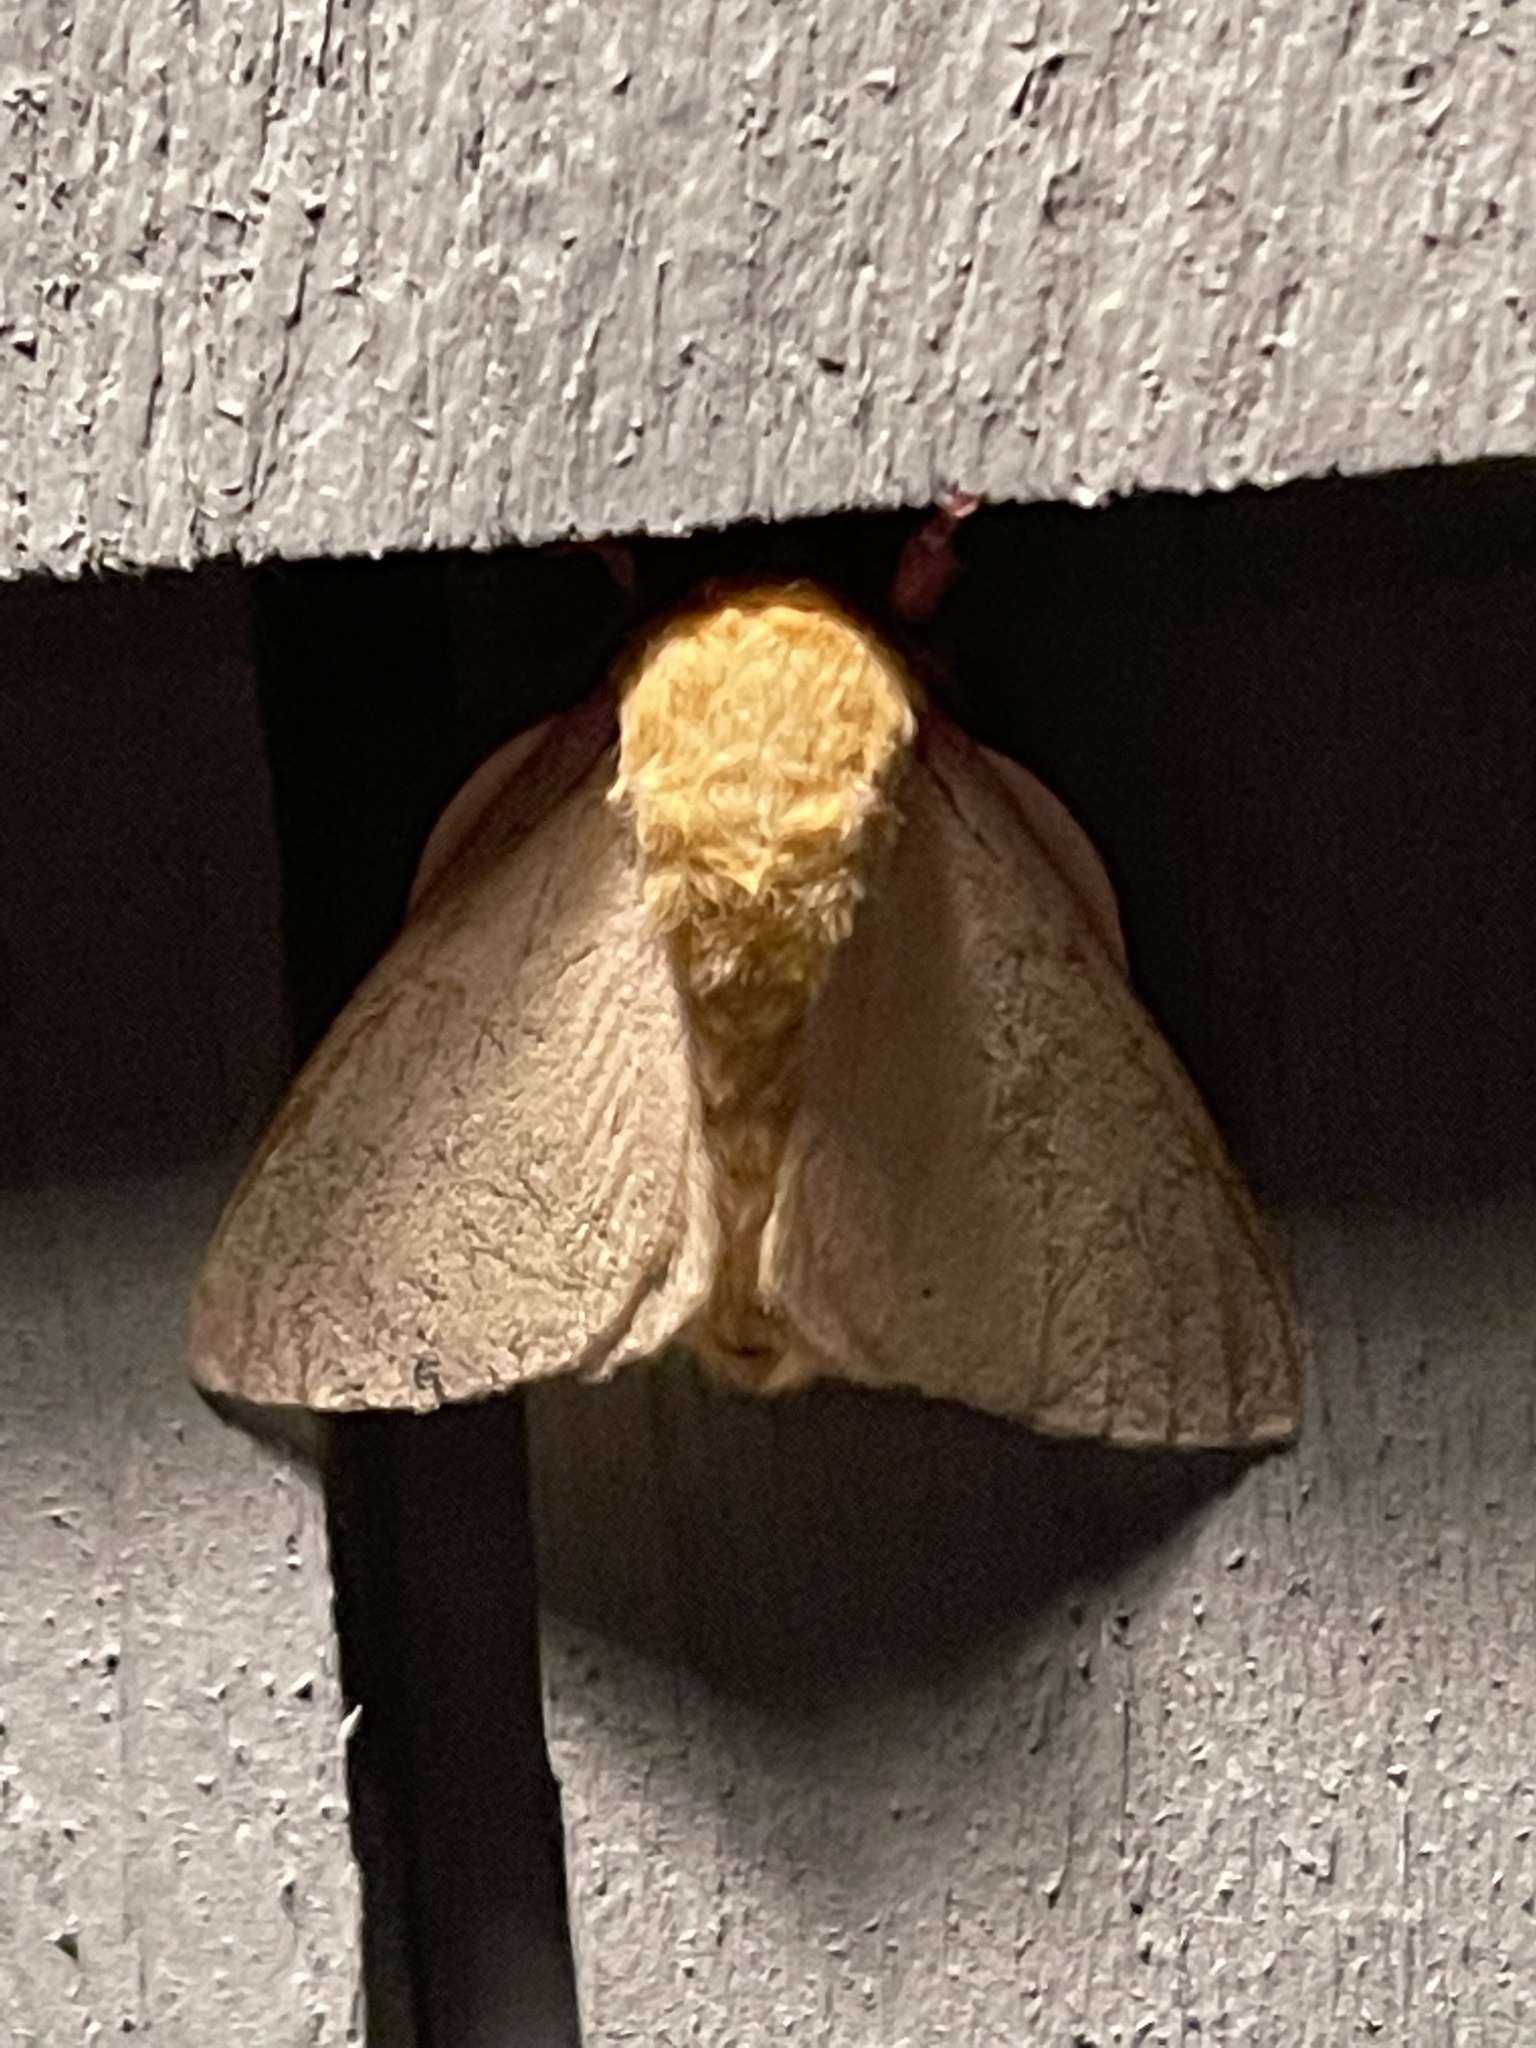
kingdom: Animalia
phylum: Arthropoda
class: Insecta
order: Lepidoptera
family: Saturniidae
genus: Dryocampa
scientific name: Dryocampa rubicunda
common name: Rosy maple moth
